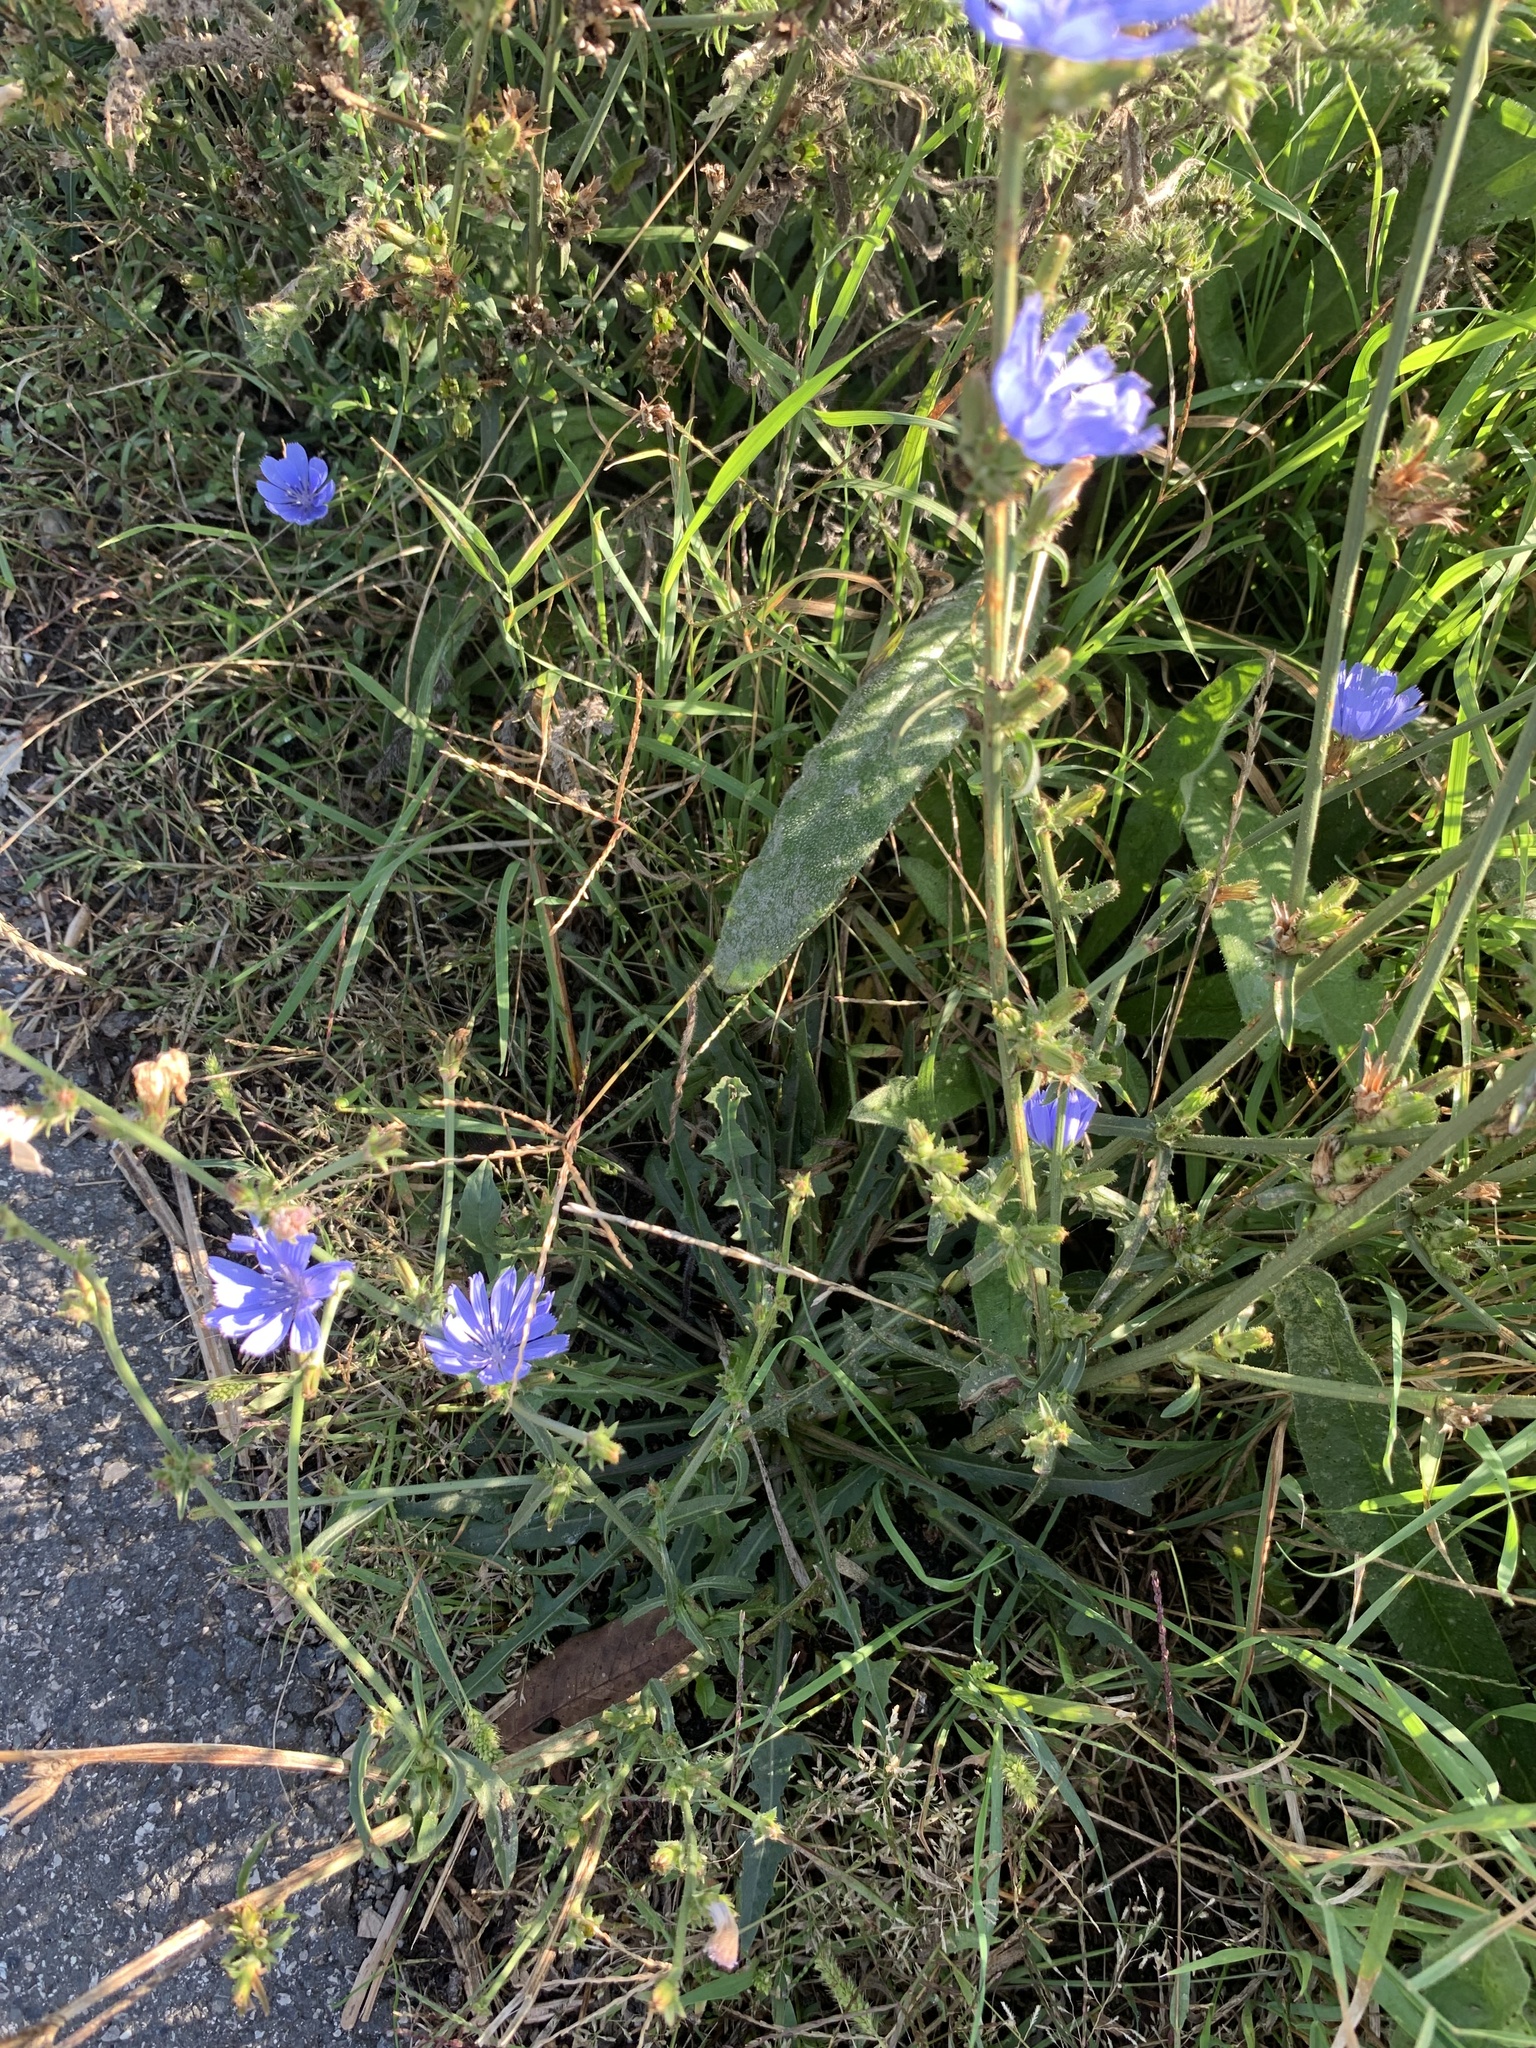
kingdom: Plantae
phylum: Tracheophyta
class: Magnoliopsida
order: Asterales
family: Asteraceae
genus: Cichorium
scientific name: Cichorium intybus
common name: Chicory
